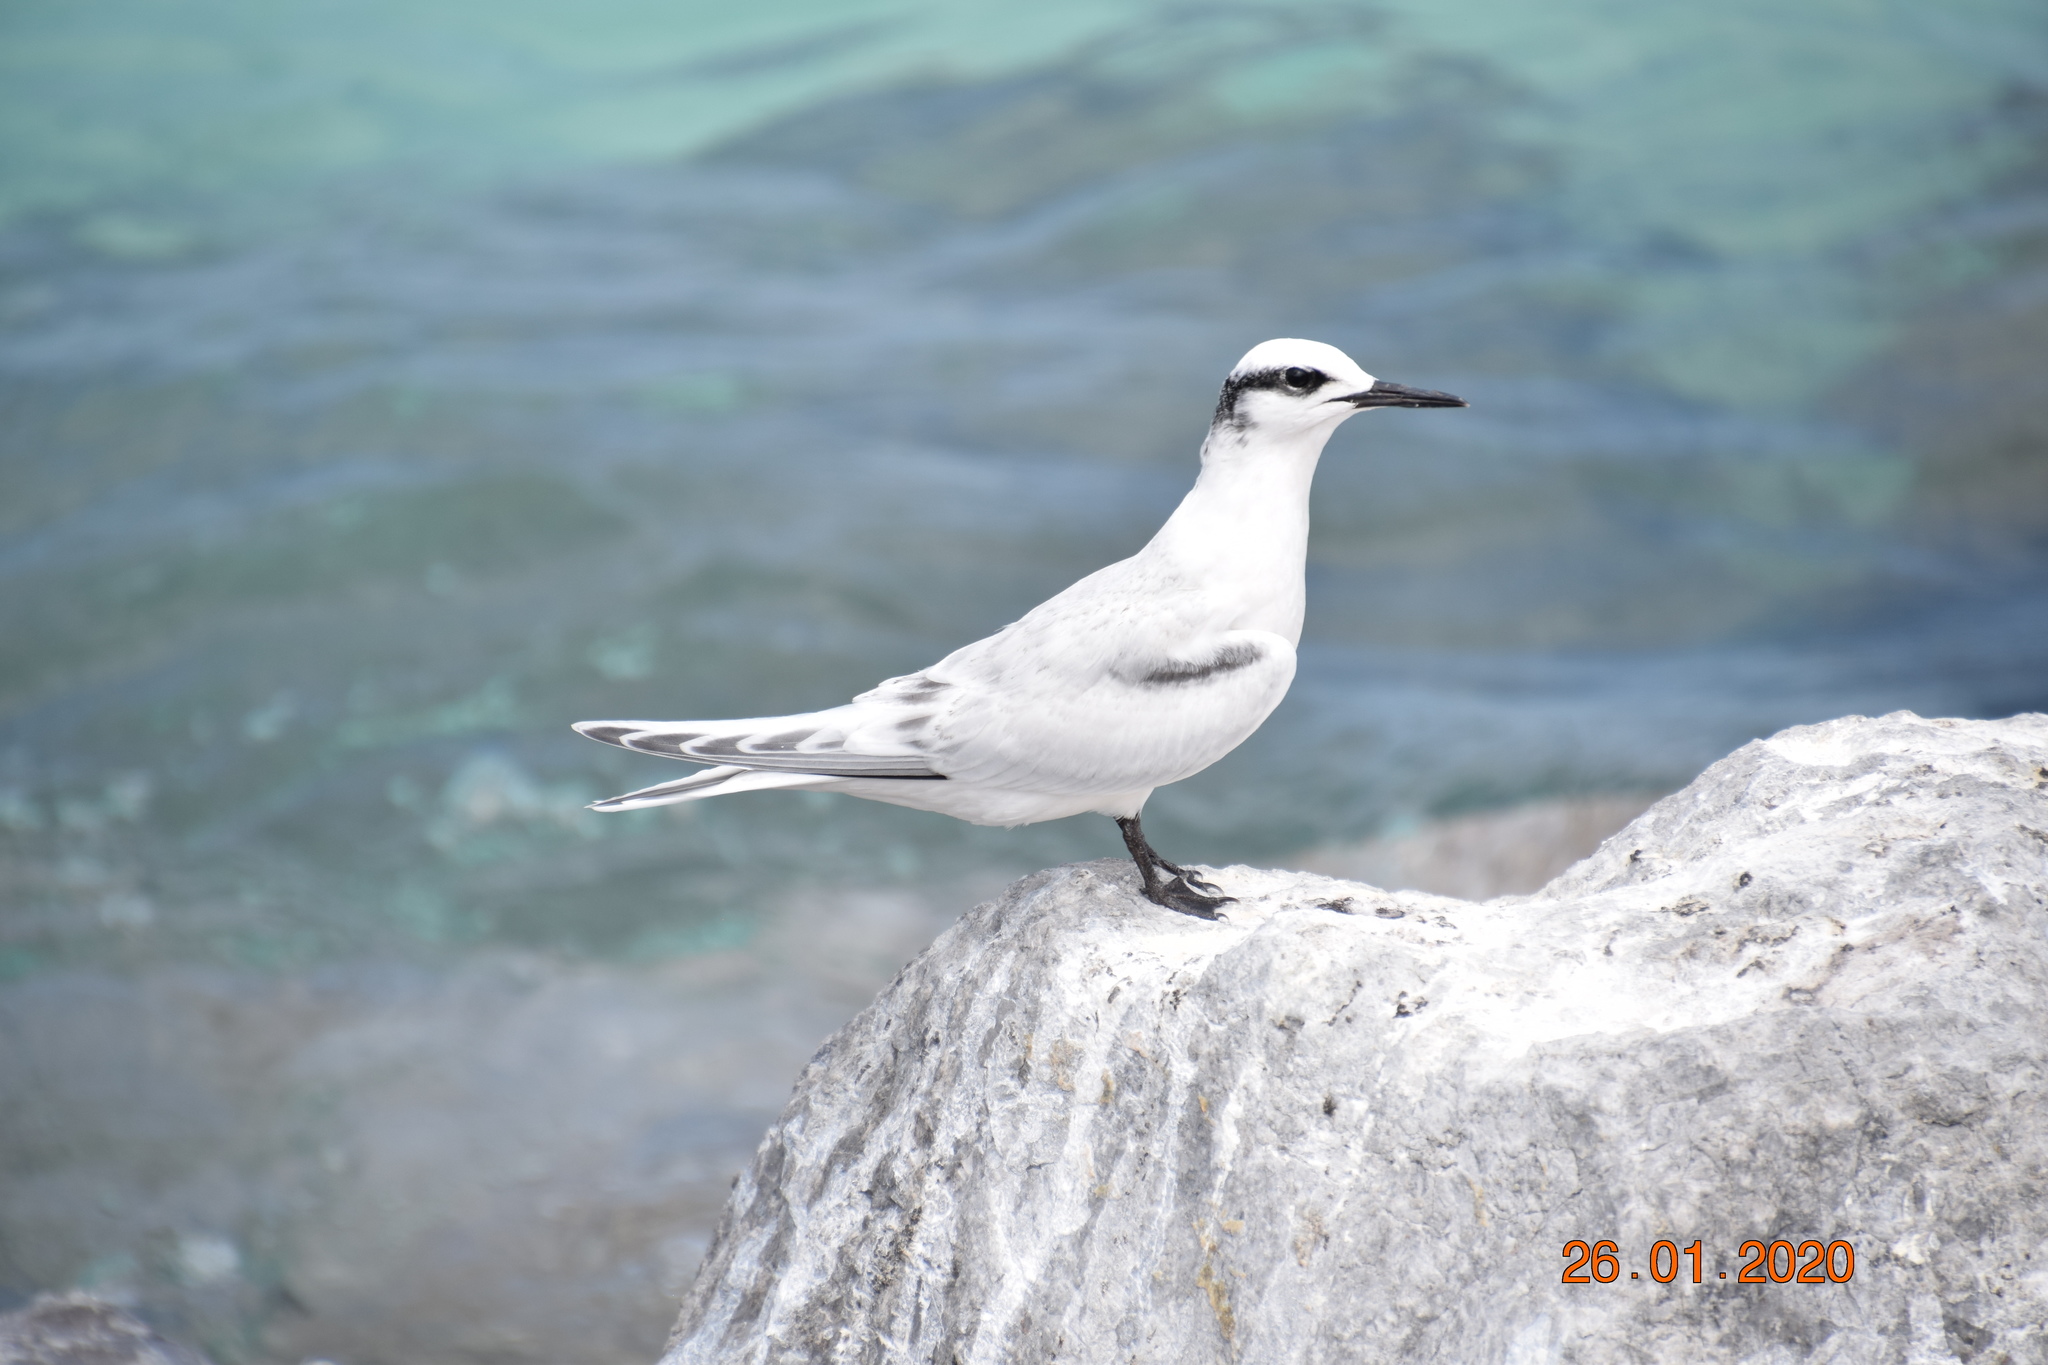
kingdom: Animalia
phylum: Chordata
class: Aves
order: Charadriiformes
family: Laridae
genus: Sterna
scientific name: Sterna sumatrana
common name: Black-naped tern
